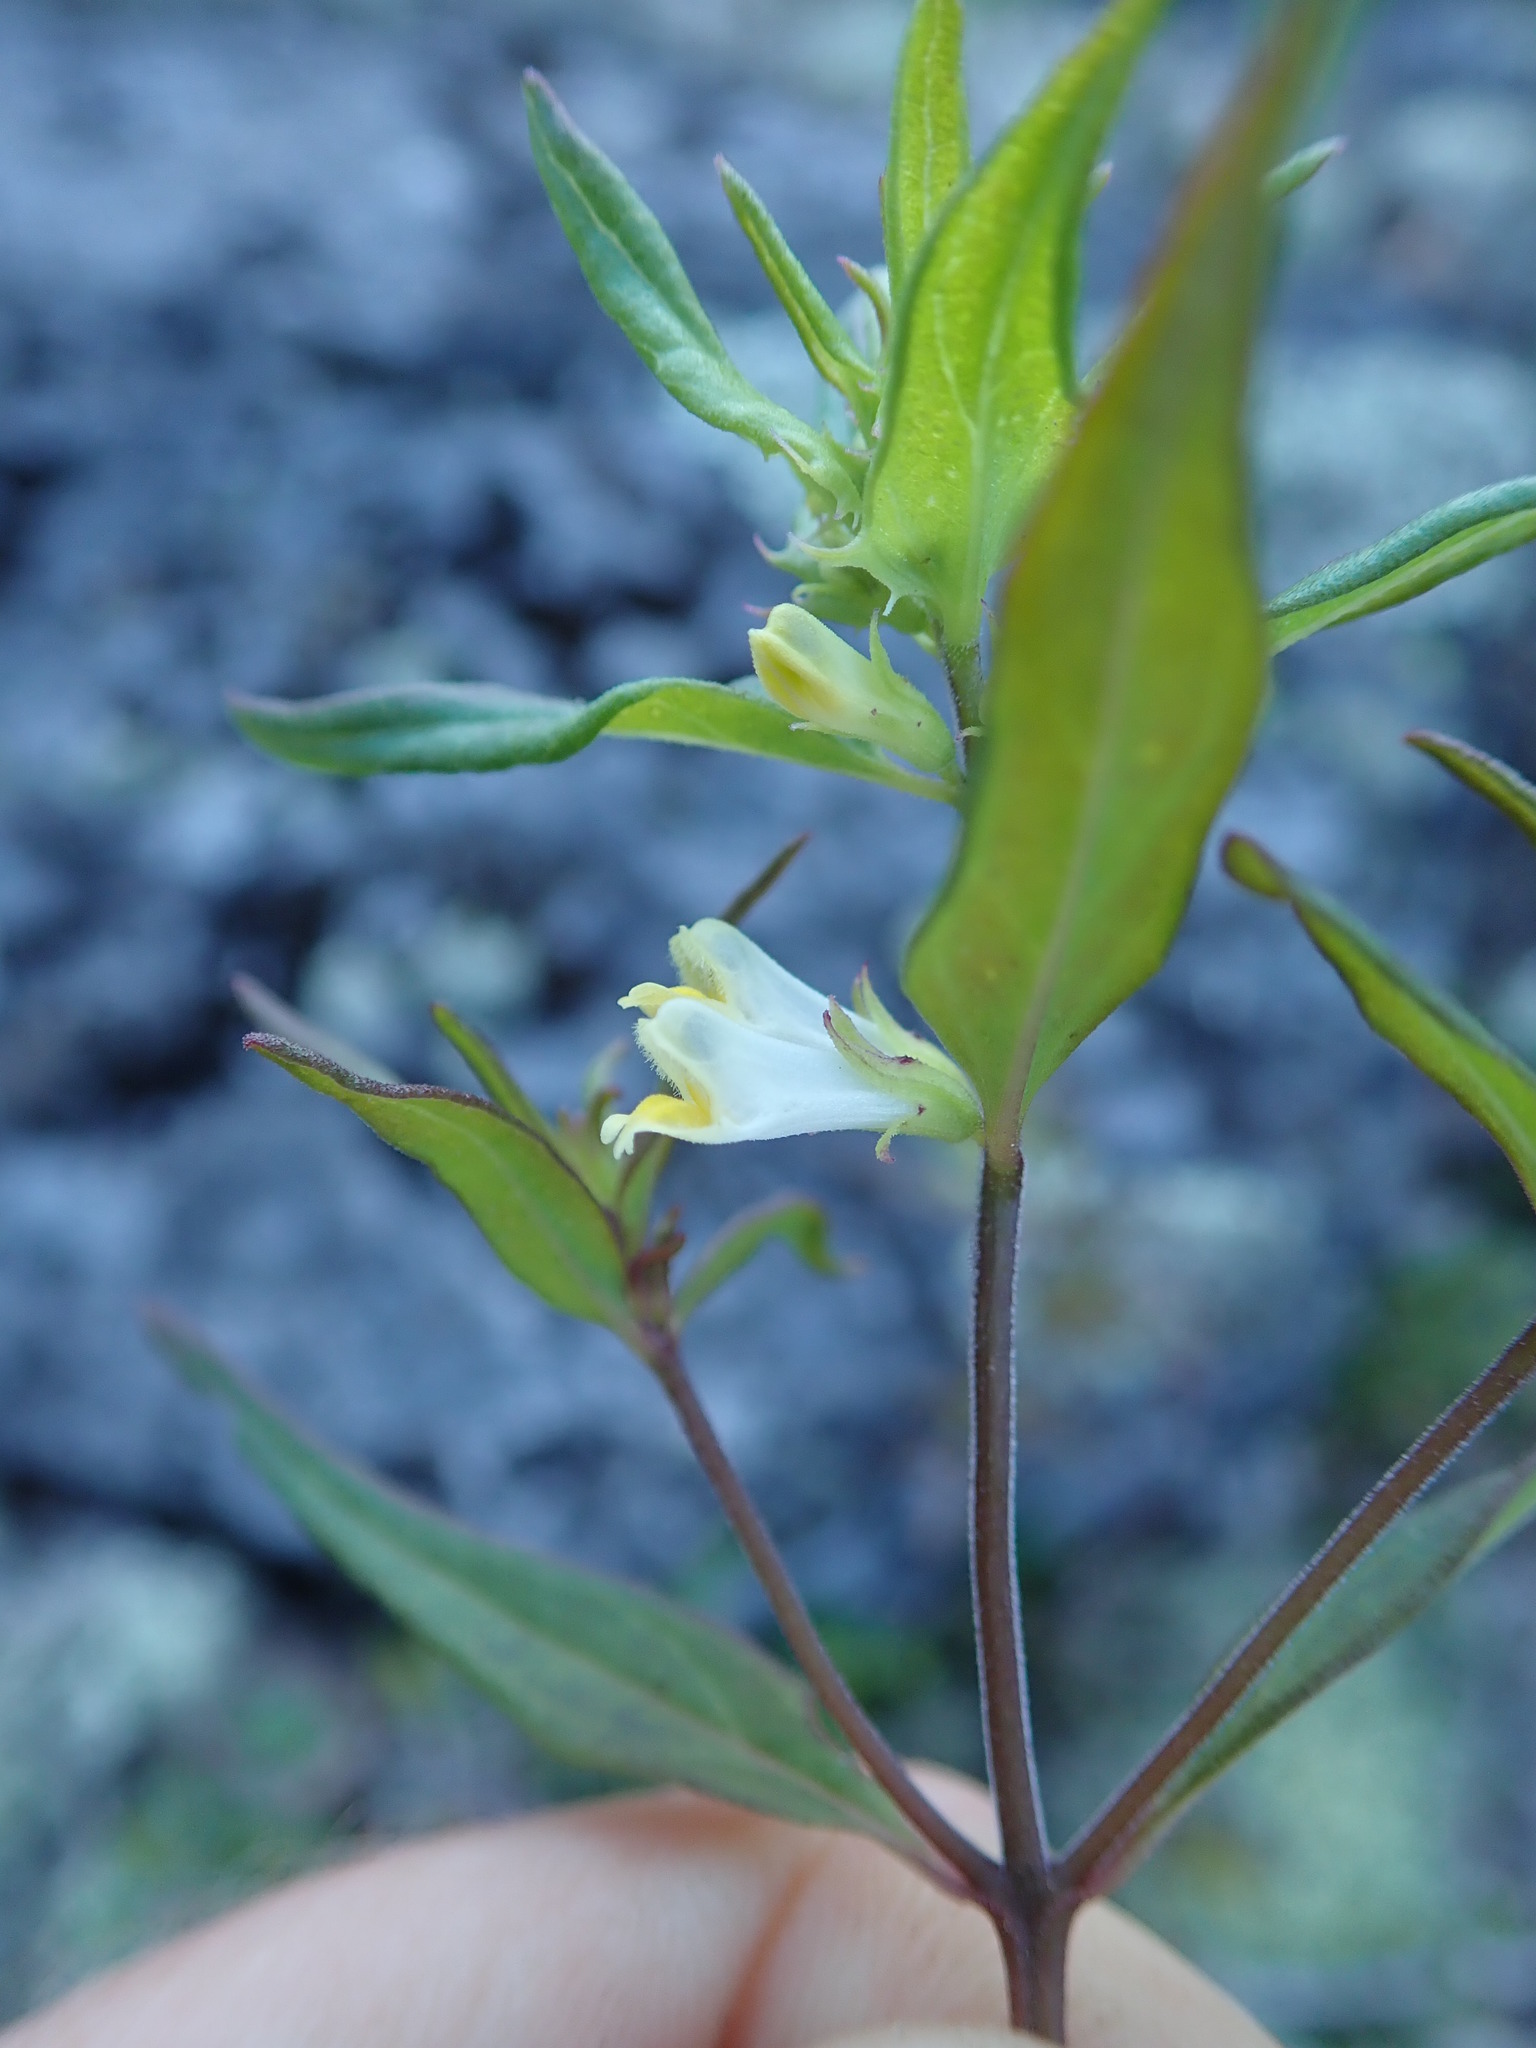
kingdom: Plantae
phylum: Tracheophyta
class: Magnoliopsida
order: Lamiales
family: Orobanchaceae
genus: Melampyrum
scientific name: Melampyrum lineare
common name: American cow-wheat
